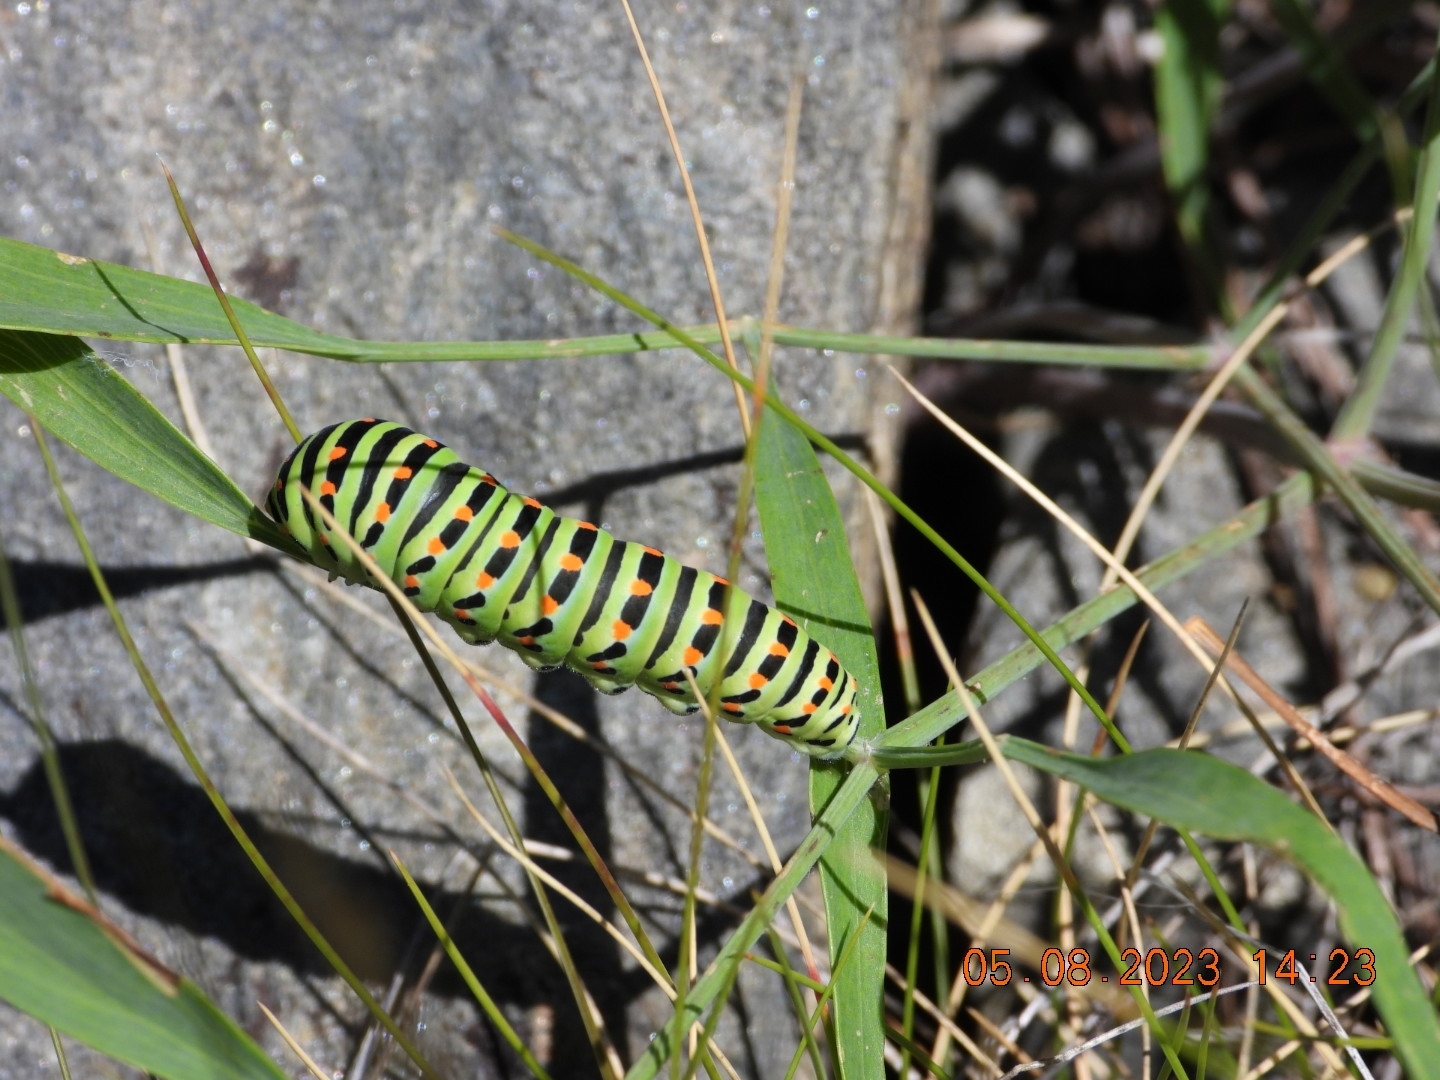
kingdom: Animalia
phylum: Arthropoda
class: Insecta
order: Lepidoptera
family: Papilionidae
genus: Papilio
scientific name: Papilio machaon
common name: Swallowtail
